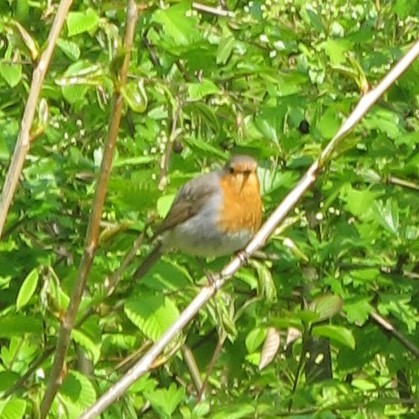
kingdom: Animalia
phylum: Chordata
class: Aves
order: Passeriformes
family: Muscicapidae
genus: Erithacus
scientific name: Erithacus rubecula
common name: European robin
